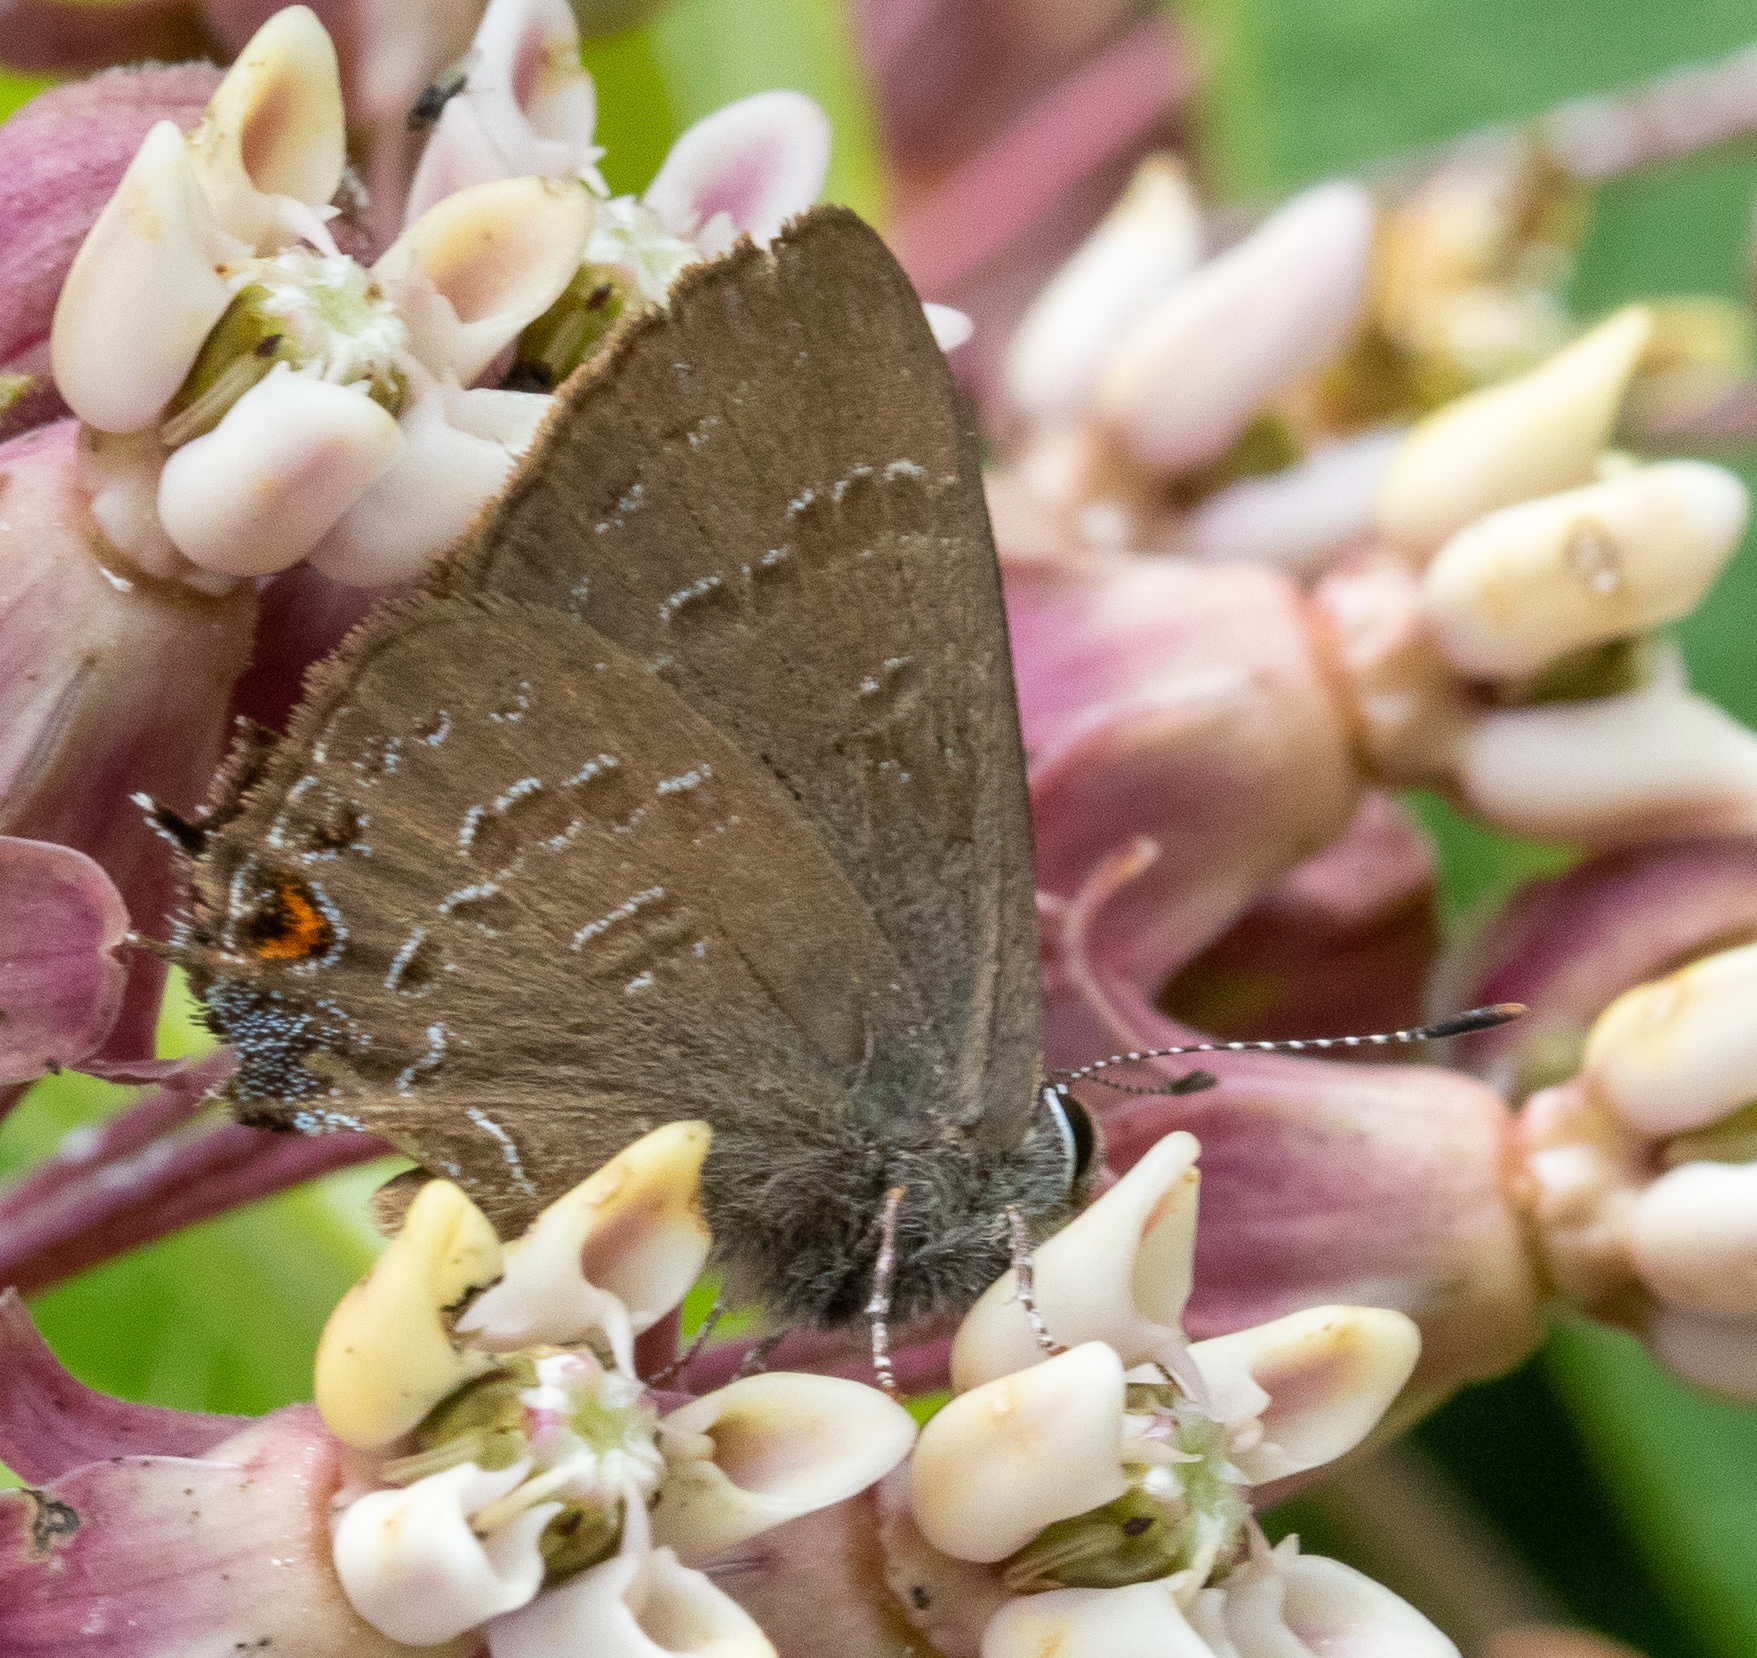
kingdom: Animalia
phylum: Arthropoda
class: Insecta
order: Lepidoptera
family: Lycaenidae
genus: Satyrium
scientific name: Satyrium calanus
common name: Banded hairstreak
